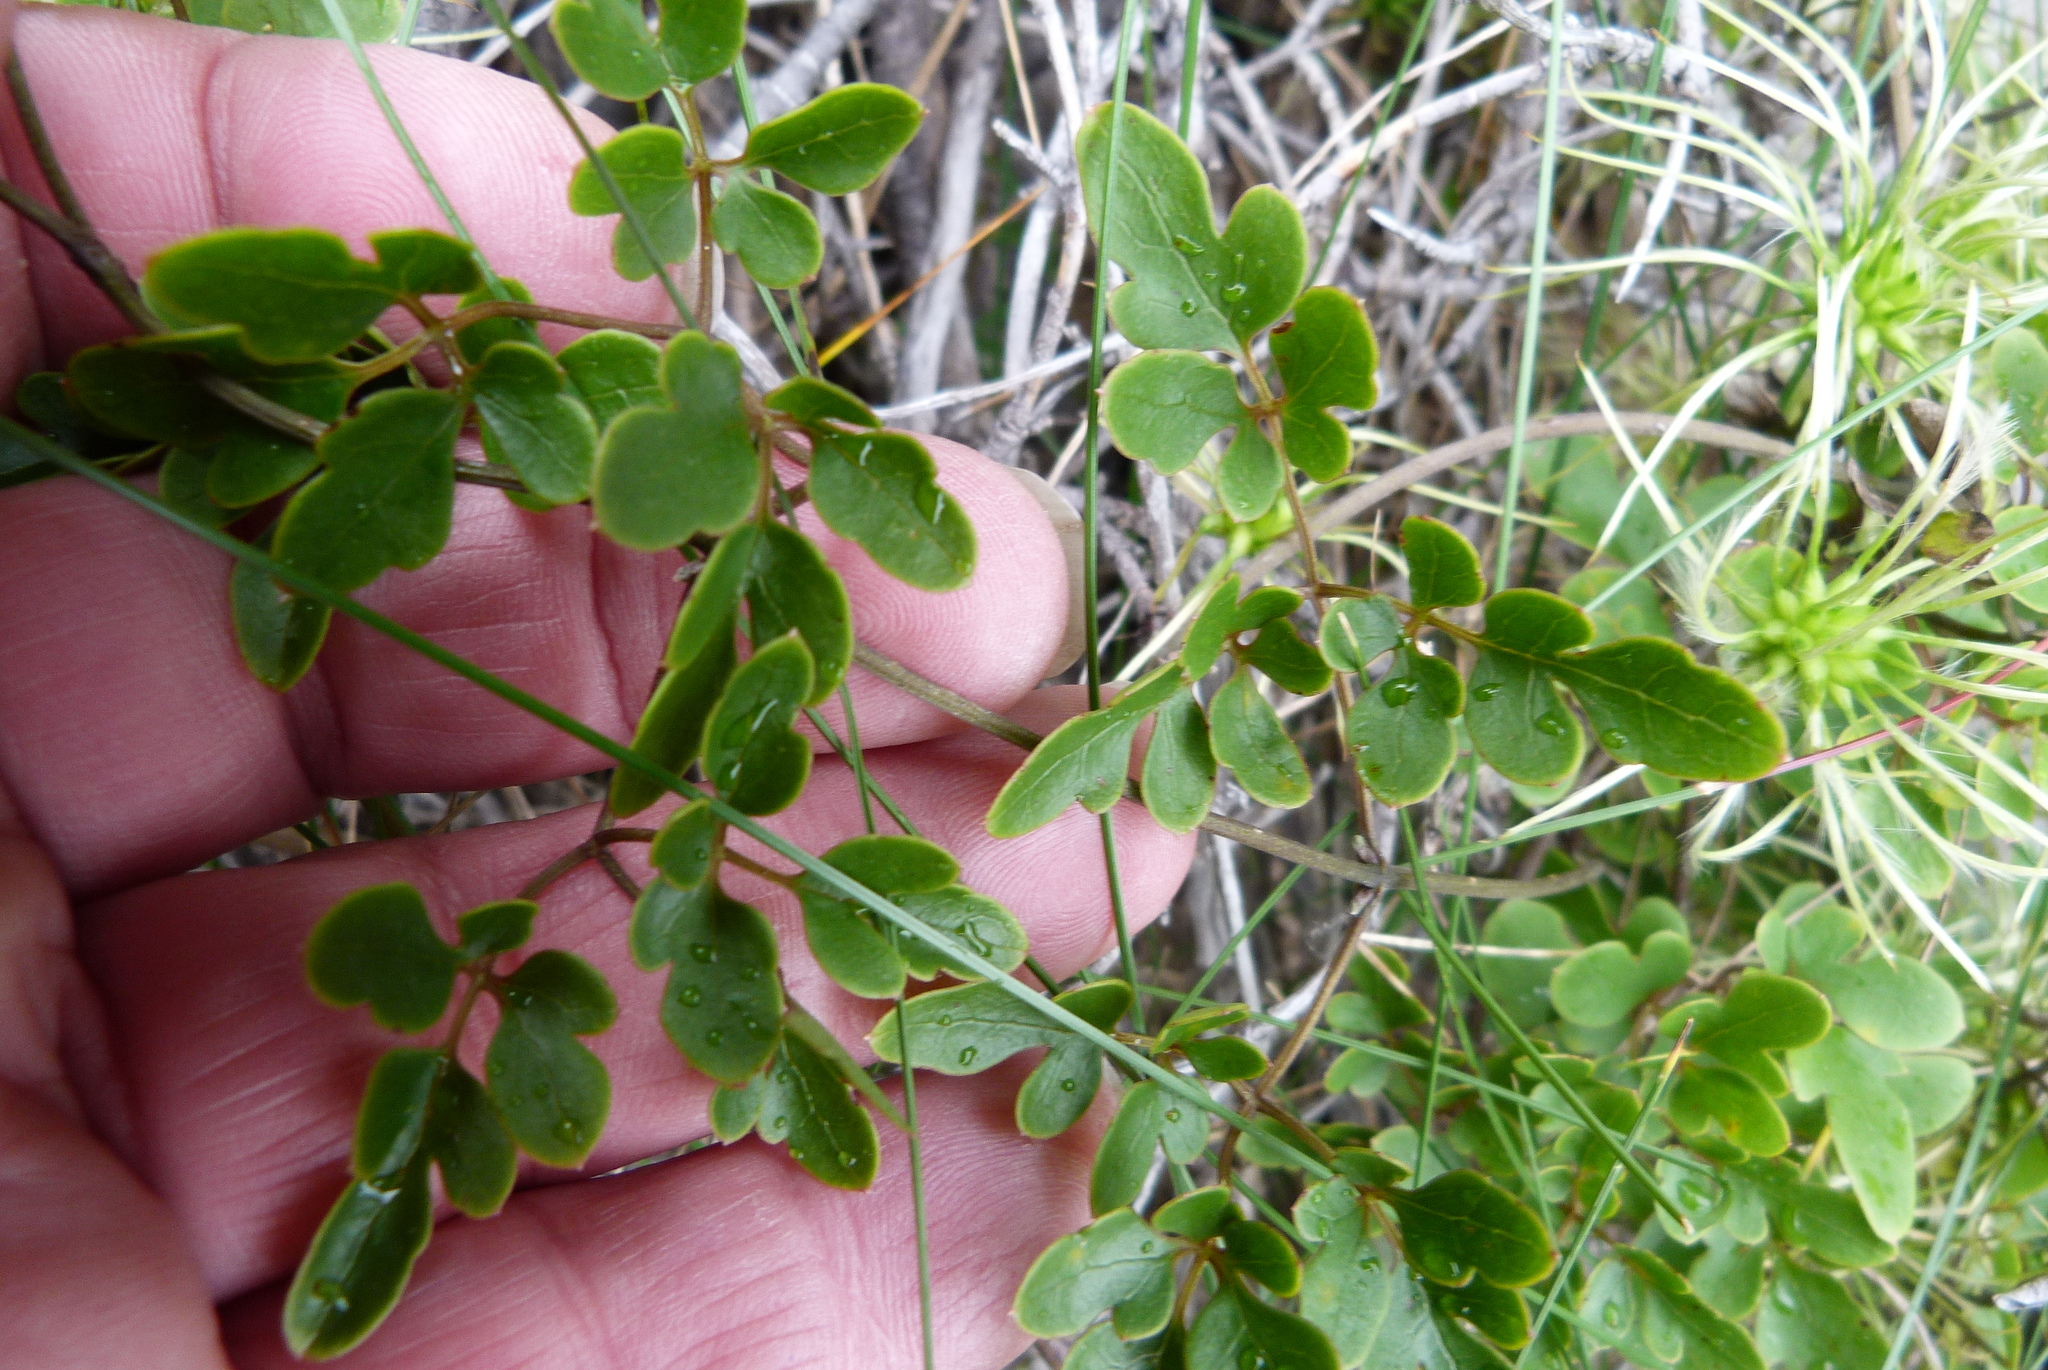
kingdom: Plantae
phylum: Tracheophyta
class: Magnoliopsida
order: Ranunculales
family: Ranunculaceae
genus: Clematis
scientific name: Clematis forsteri
